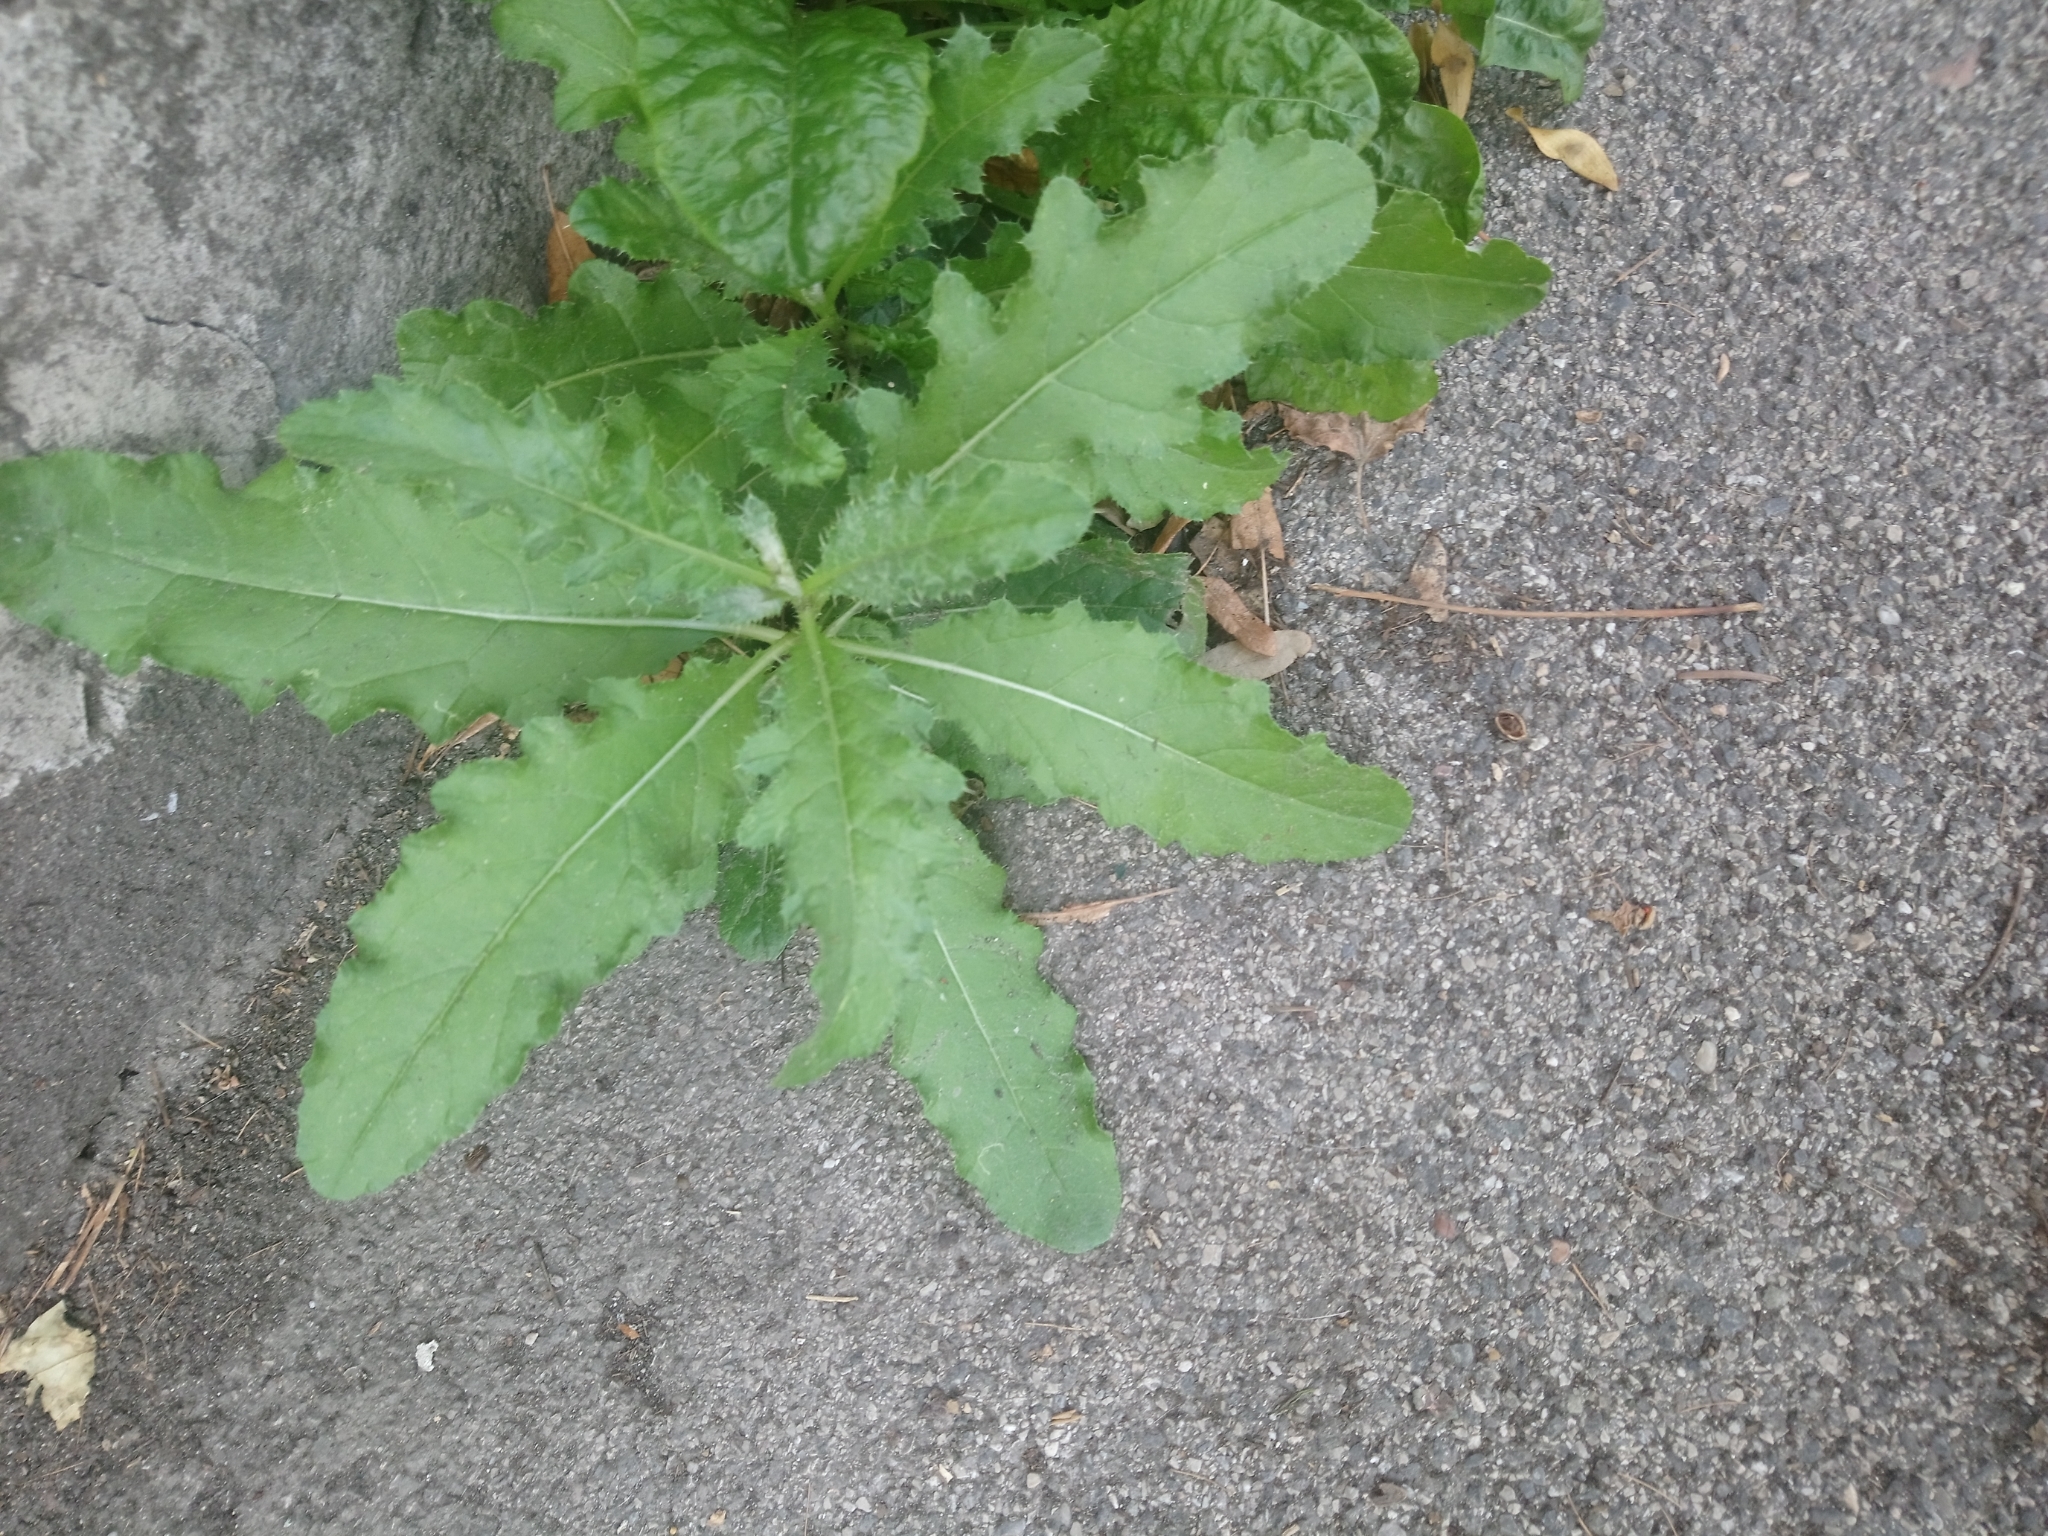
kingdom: Plantae
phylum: Tracheophyta
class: Magnoliopsida
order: Asterales
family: Asteraceae
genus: Cirsium
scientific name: Cirsium arvense
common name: Creeping thistle
